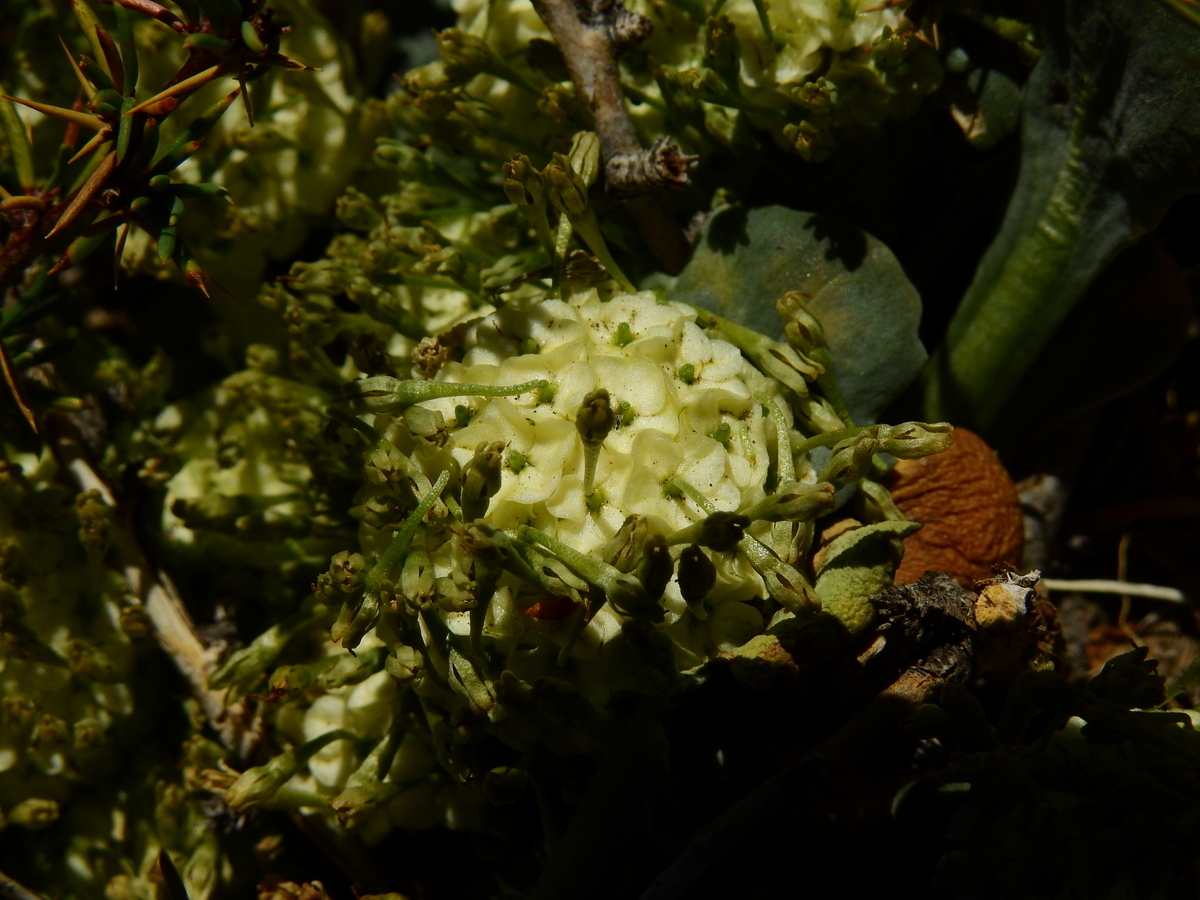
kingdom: Plantae
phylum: Tracheophyta
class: Magnoliopsida
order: Asterales
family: Calyceraceae
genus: Gamocarpha
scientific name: Gamocarpha scapigera
